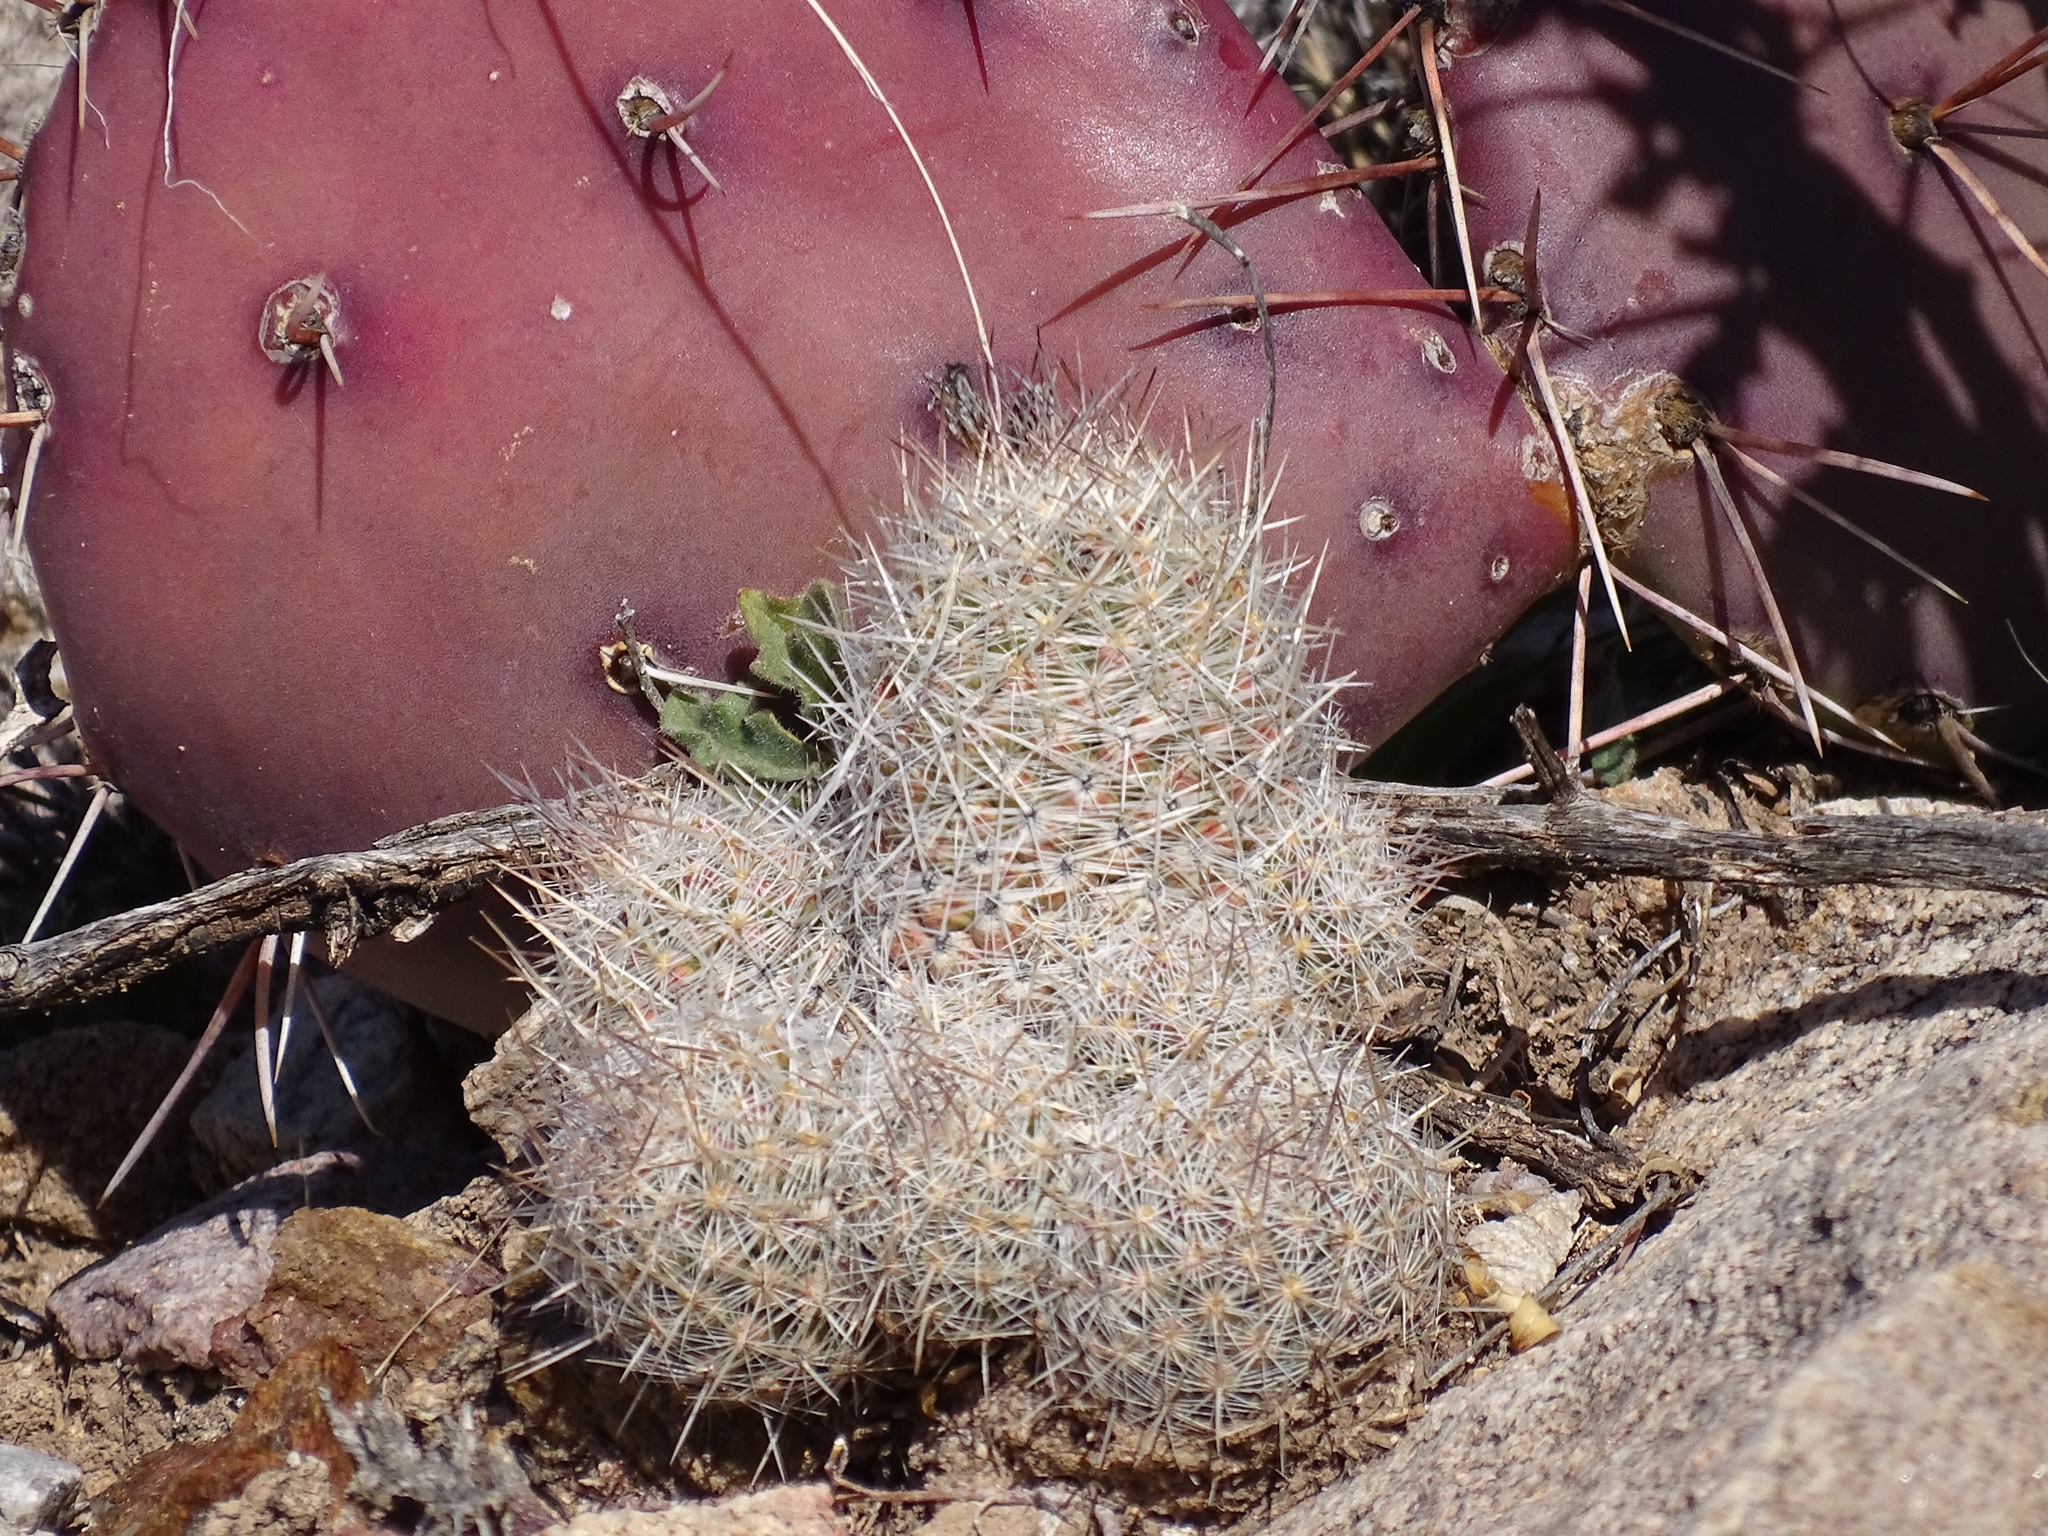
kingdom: Plantae
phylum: Tracheophyta
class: Magnoliopsida
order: Caryophyllales
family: Cactaceae
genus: Pelecyphora
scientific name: Pelecyphora tuberculosa
